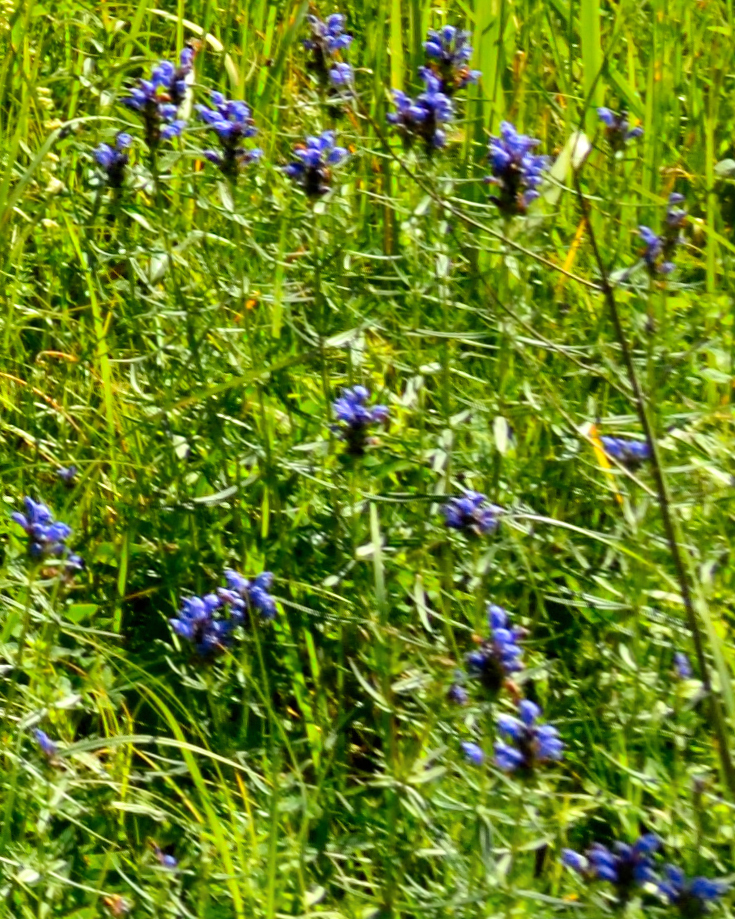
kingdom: Plantae
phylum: Tracheophyta
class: Magnoliopsida
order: Lamiales
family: Lamiaceae
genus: Dracocephalum
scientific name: Dracocephalum ruyschiana
